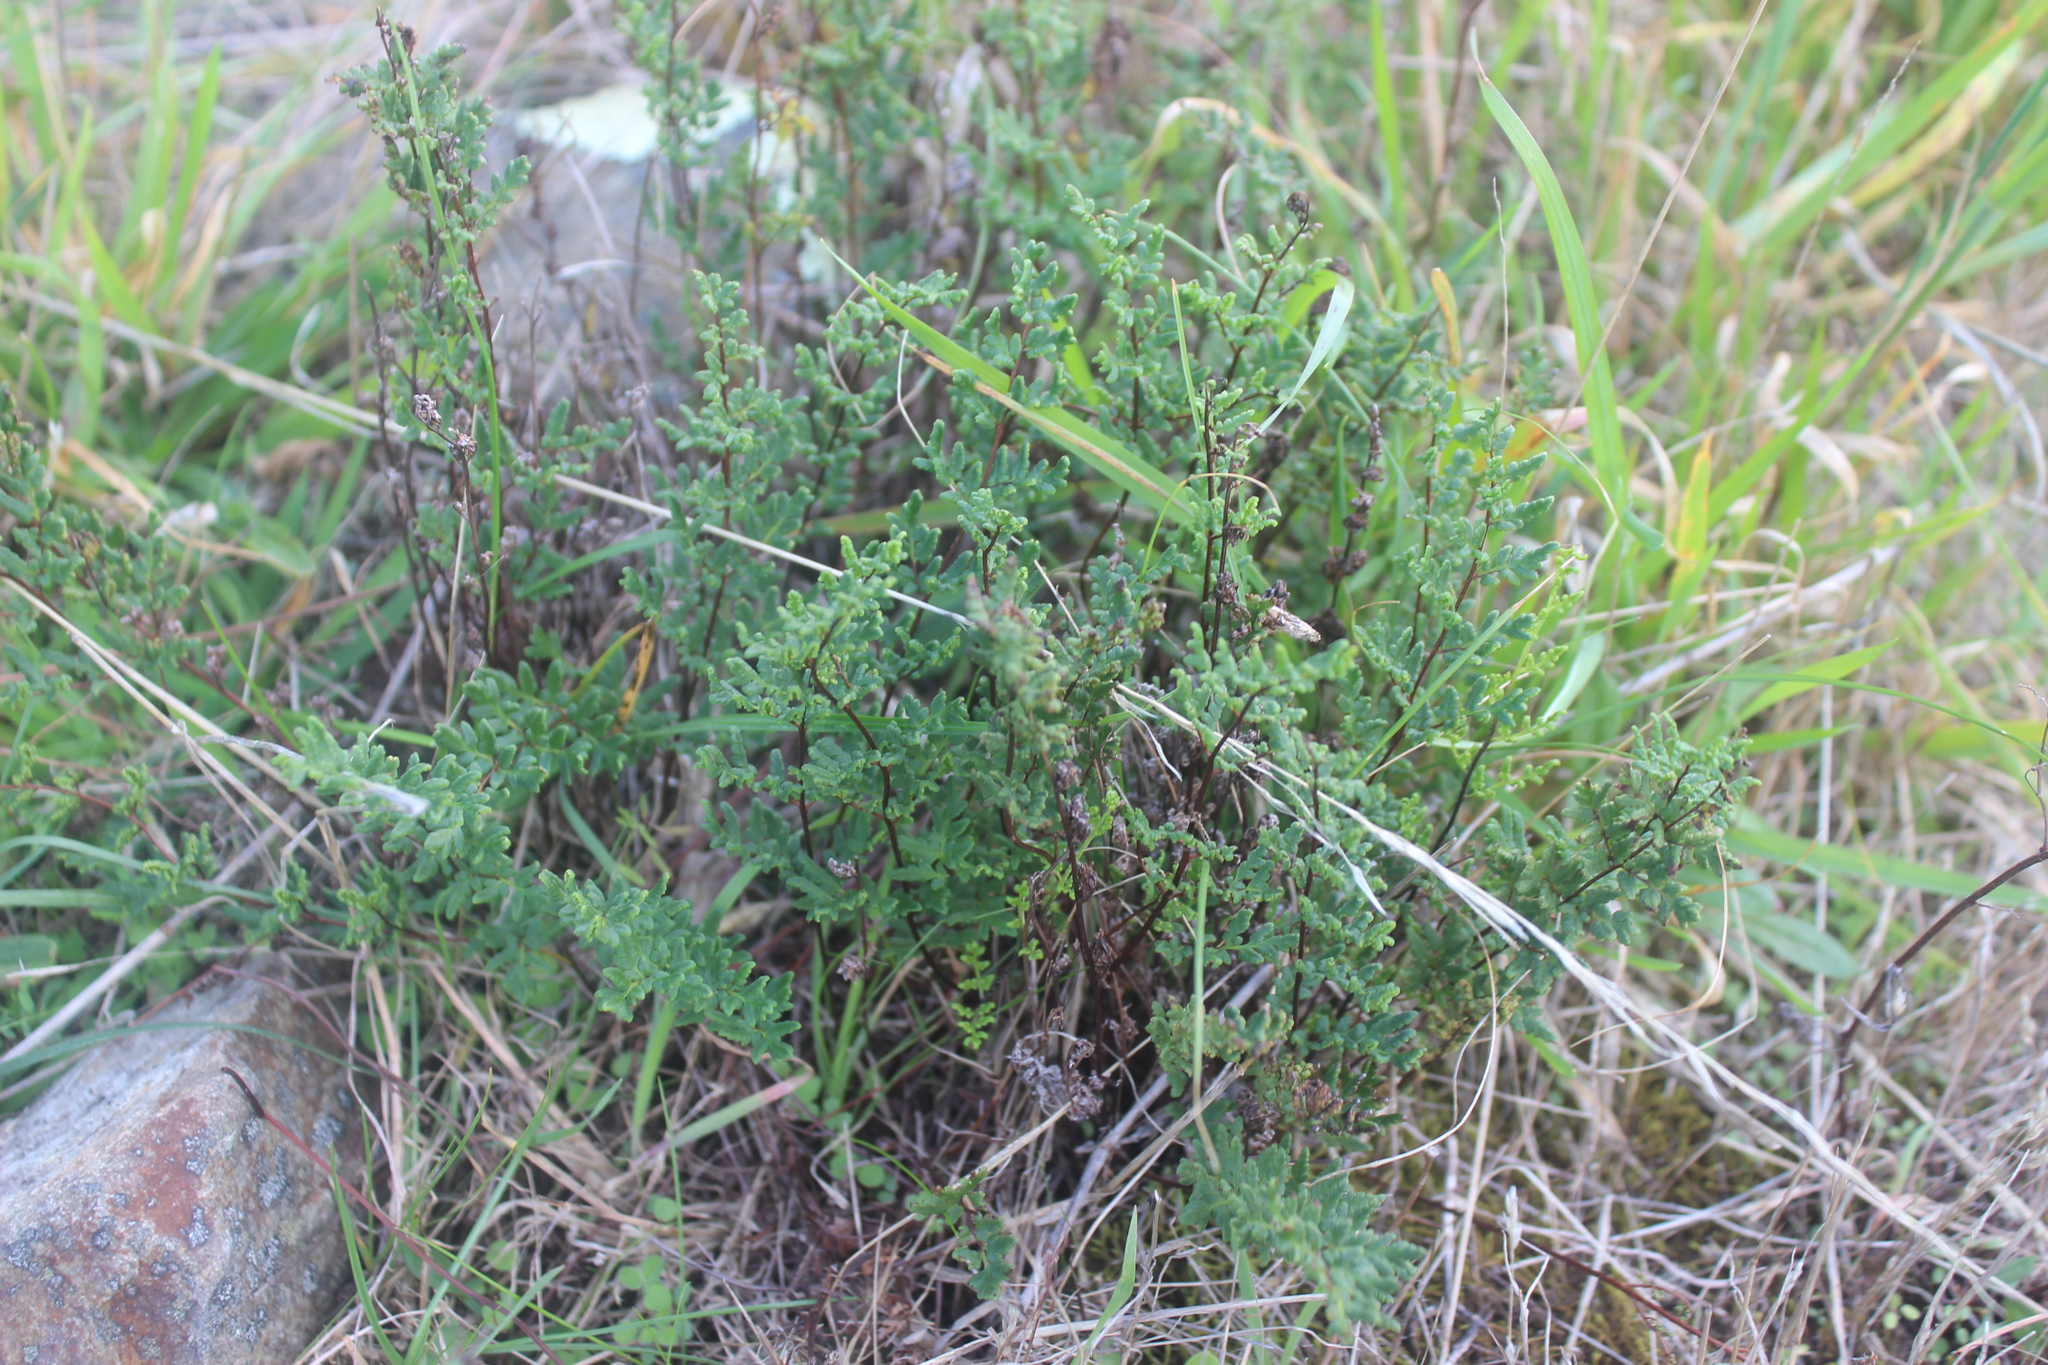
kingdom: Plantae
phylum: Tracheophyta
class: Polypodiopsida
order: Polypodiales
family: Pteridaceae
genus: Cheilanthes
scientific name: Cheilanthes sieberi
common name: Mulga fern
